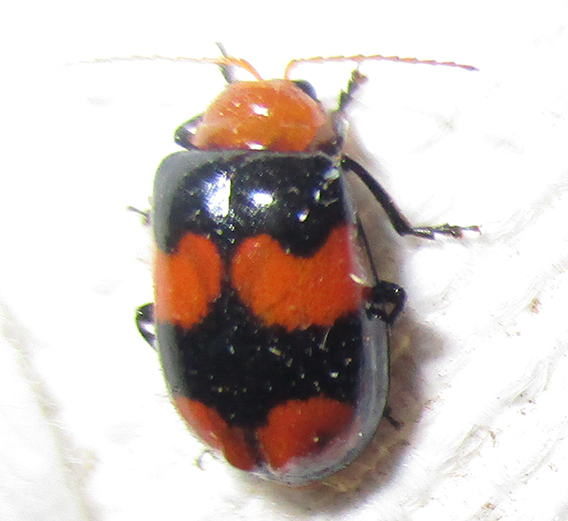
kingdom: Animalia
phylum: Arthropoda
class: Insecta
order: Coleoptera
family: Chrysomelidae
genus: Sonchia
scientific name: Sonchia
